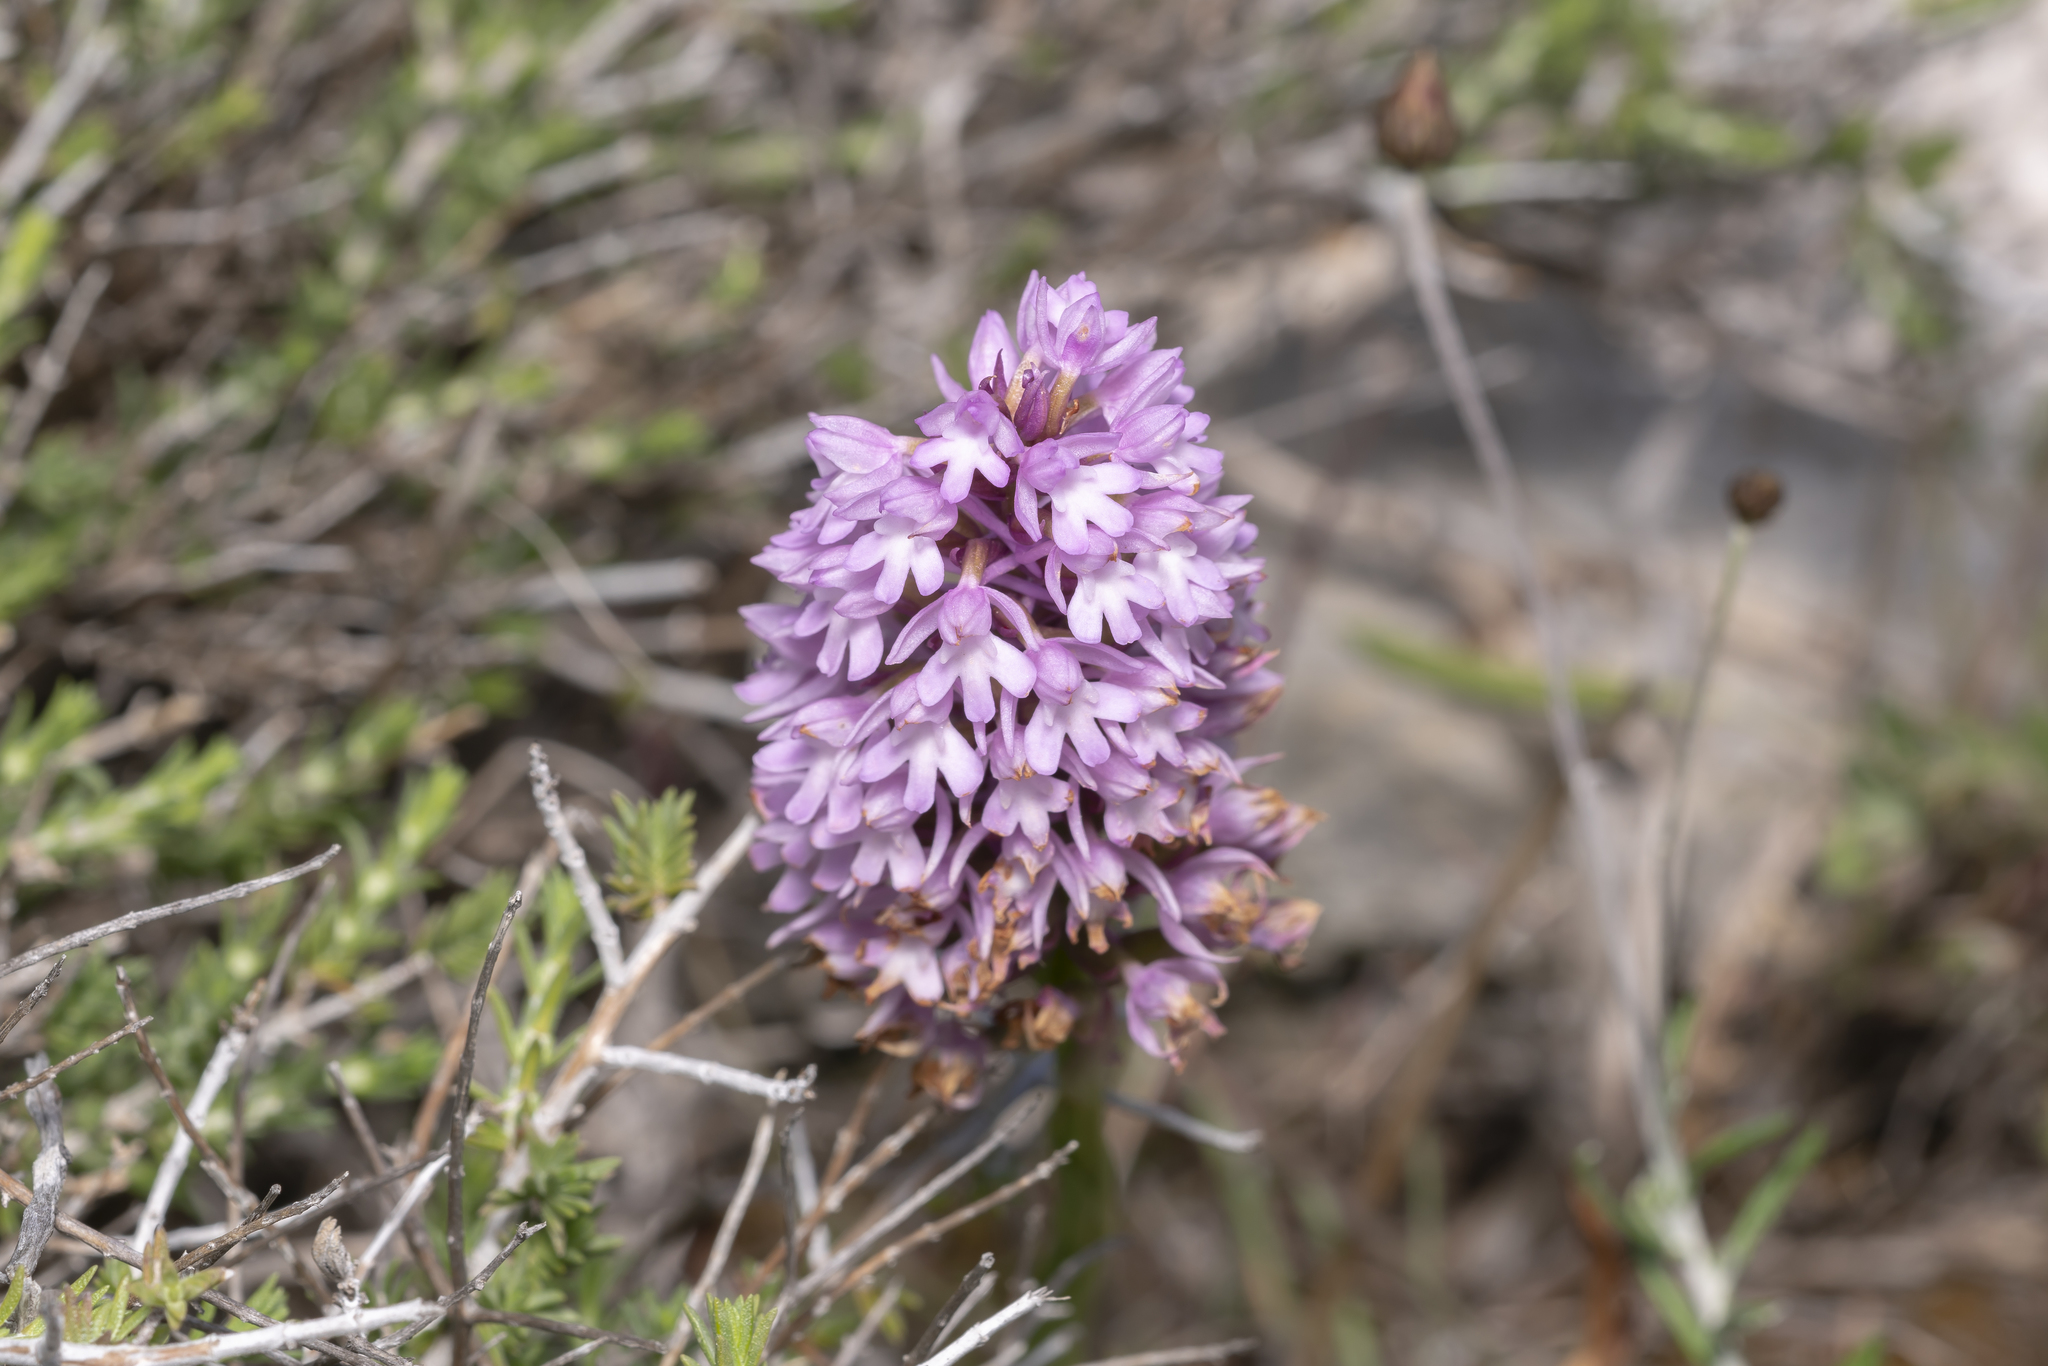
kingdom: Plantae
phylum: Tracheophyta
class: Liliopsida
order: Asparagales
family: Orchidaceae
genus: Anacamptis
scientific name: Anacamptis pyramidalis
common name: Pyramidal orchid
